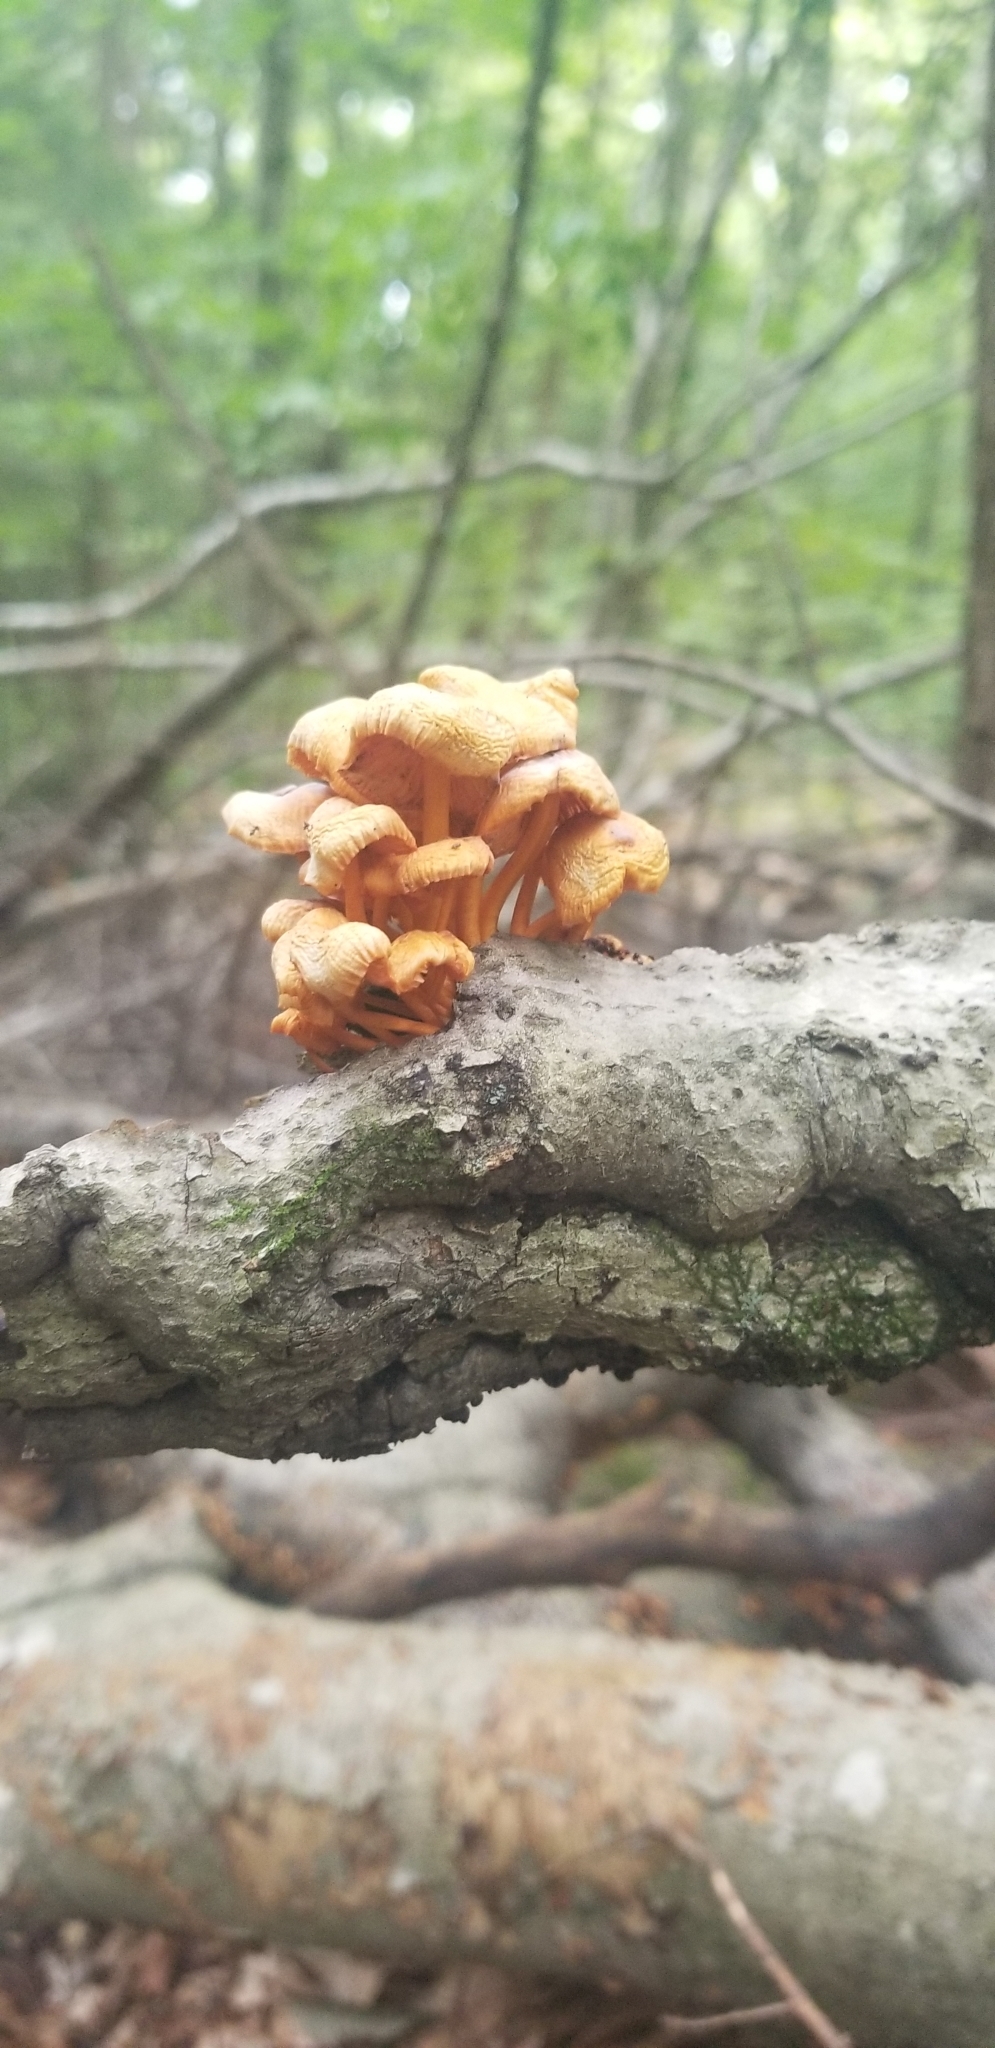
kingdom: Fungi
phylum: Basidiomycota
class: Agaricomycetes
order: Agaricales
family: Mycenaceae
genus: Mycena
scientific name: Mycena leaiana
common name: Orange mycena
